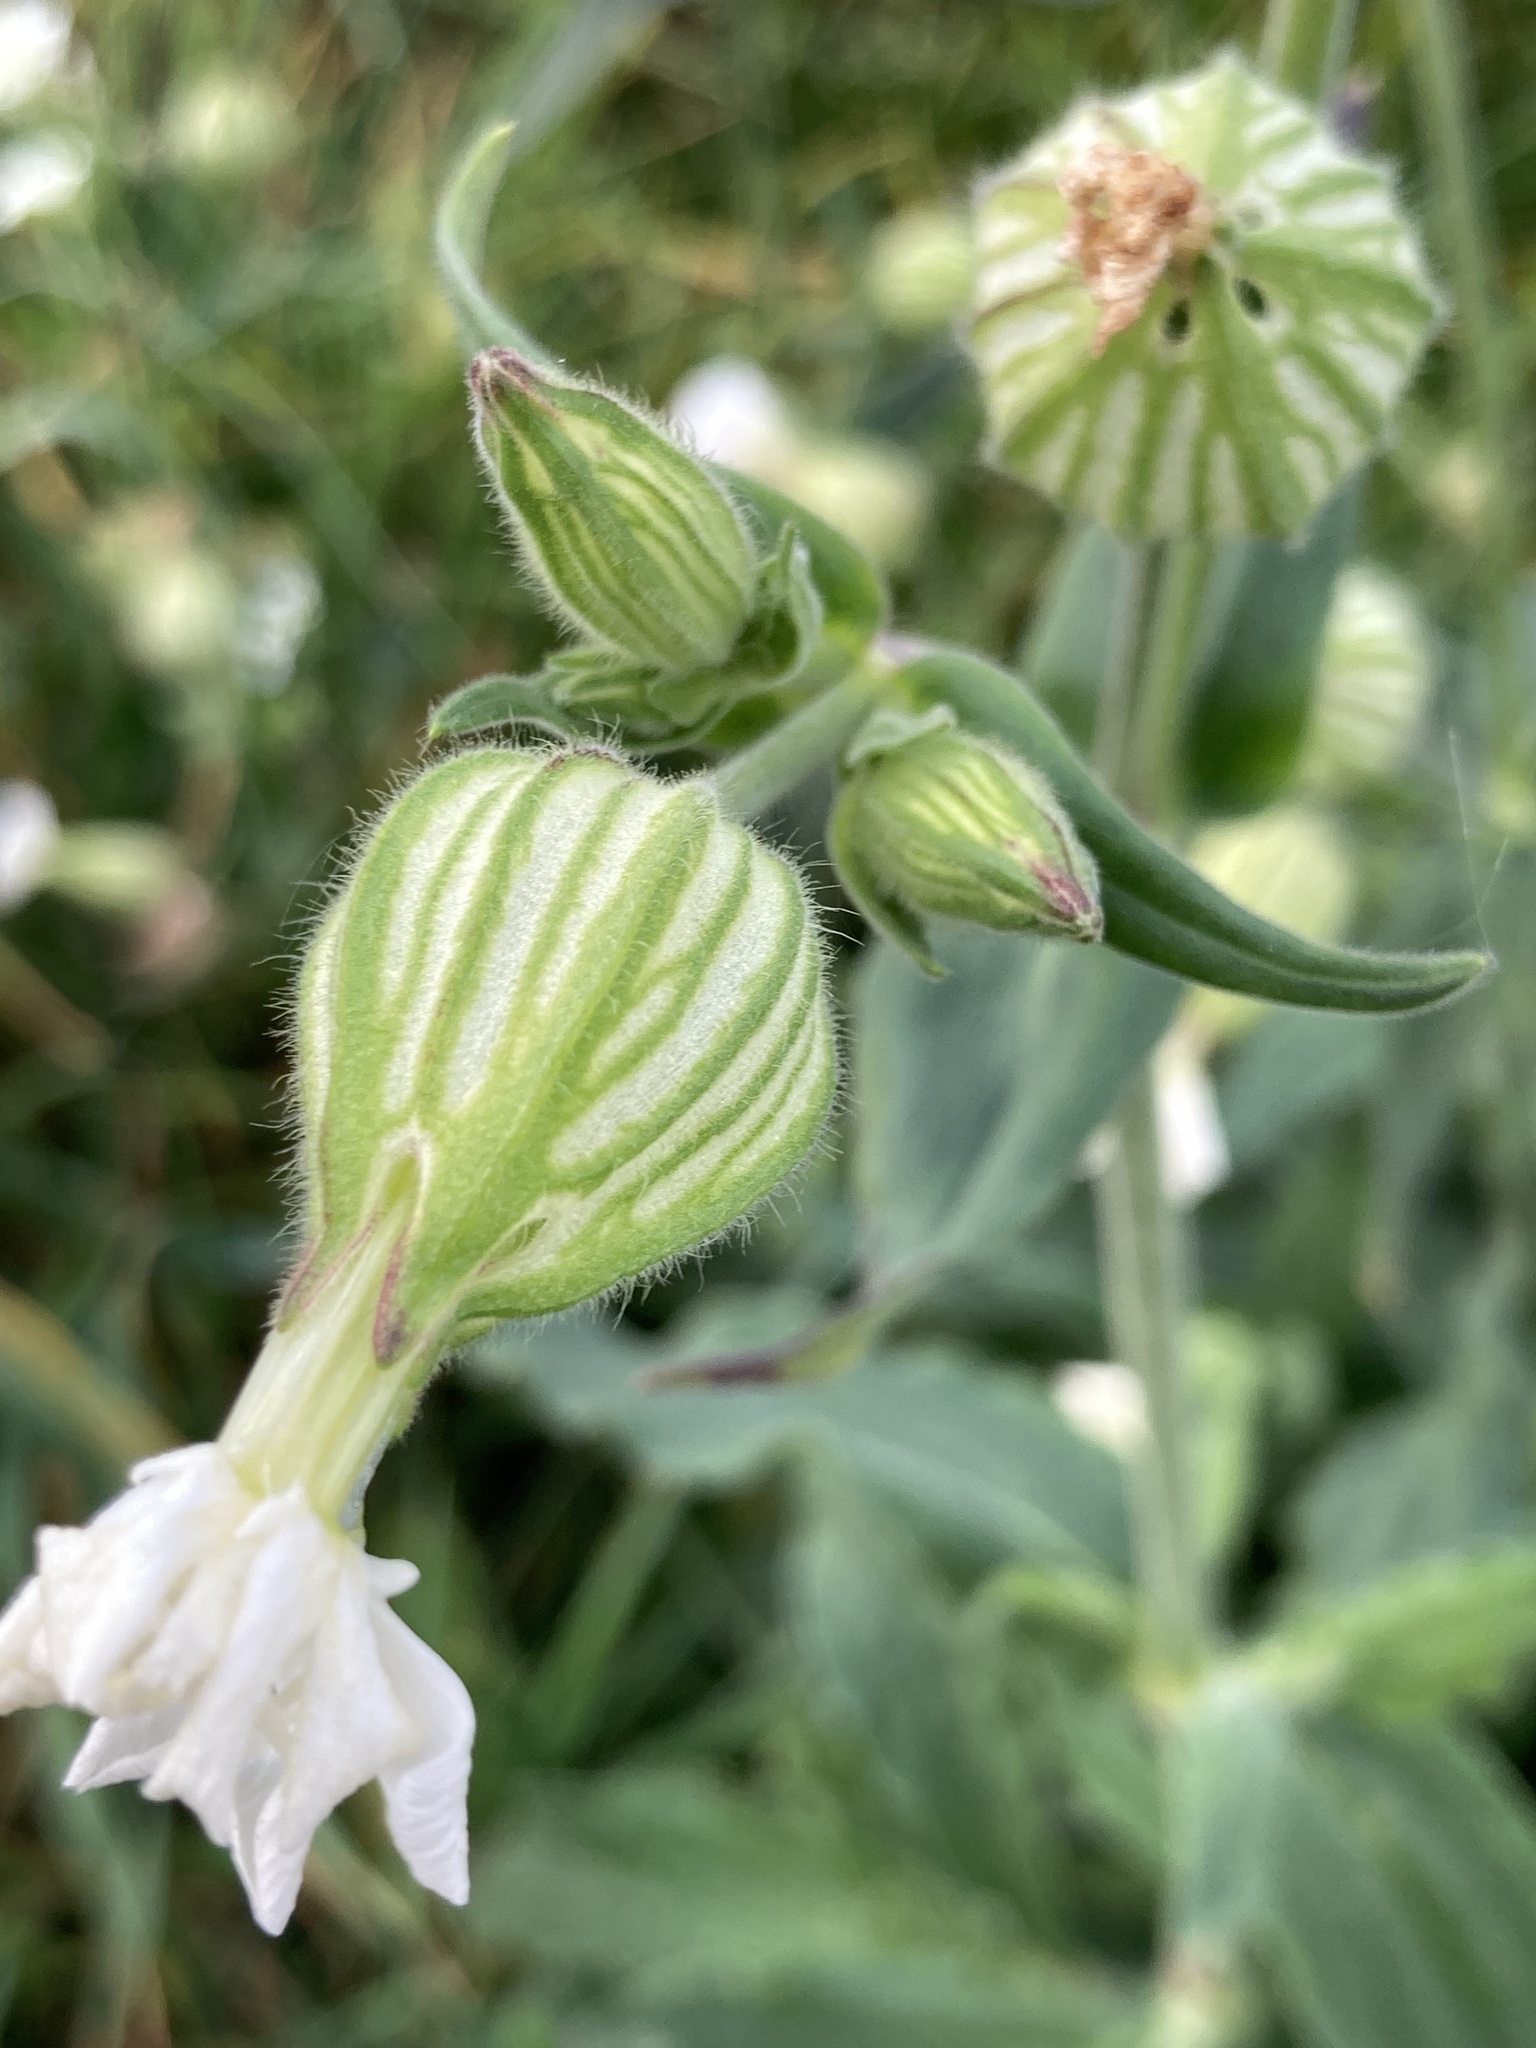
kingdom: Plantae
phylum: Tracheophyta
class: Magnoliopsida
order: Caryophyllales
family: Caryophyllaceae
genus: Silene
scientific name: Silene latifolia
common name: White campion
